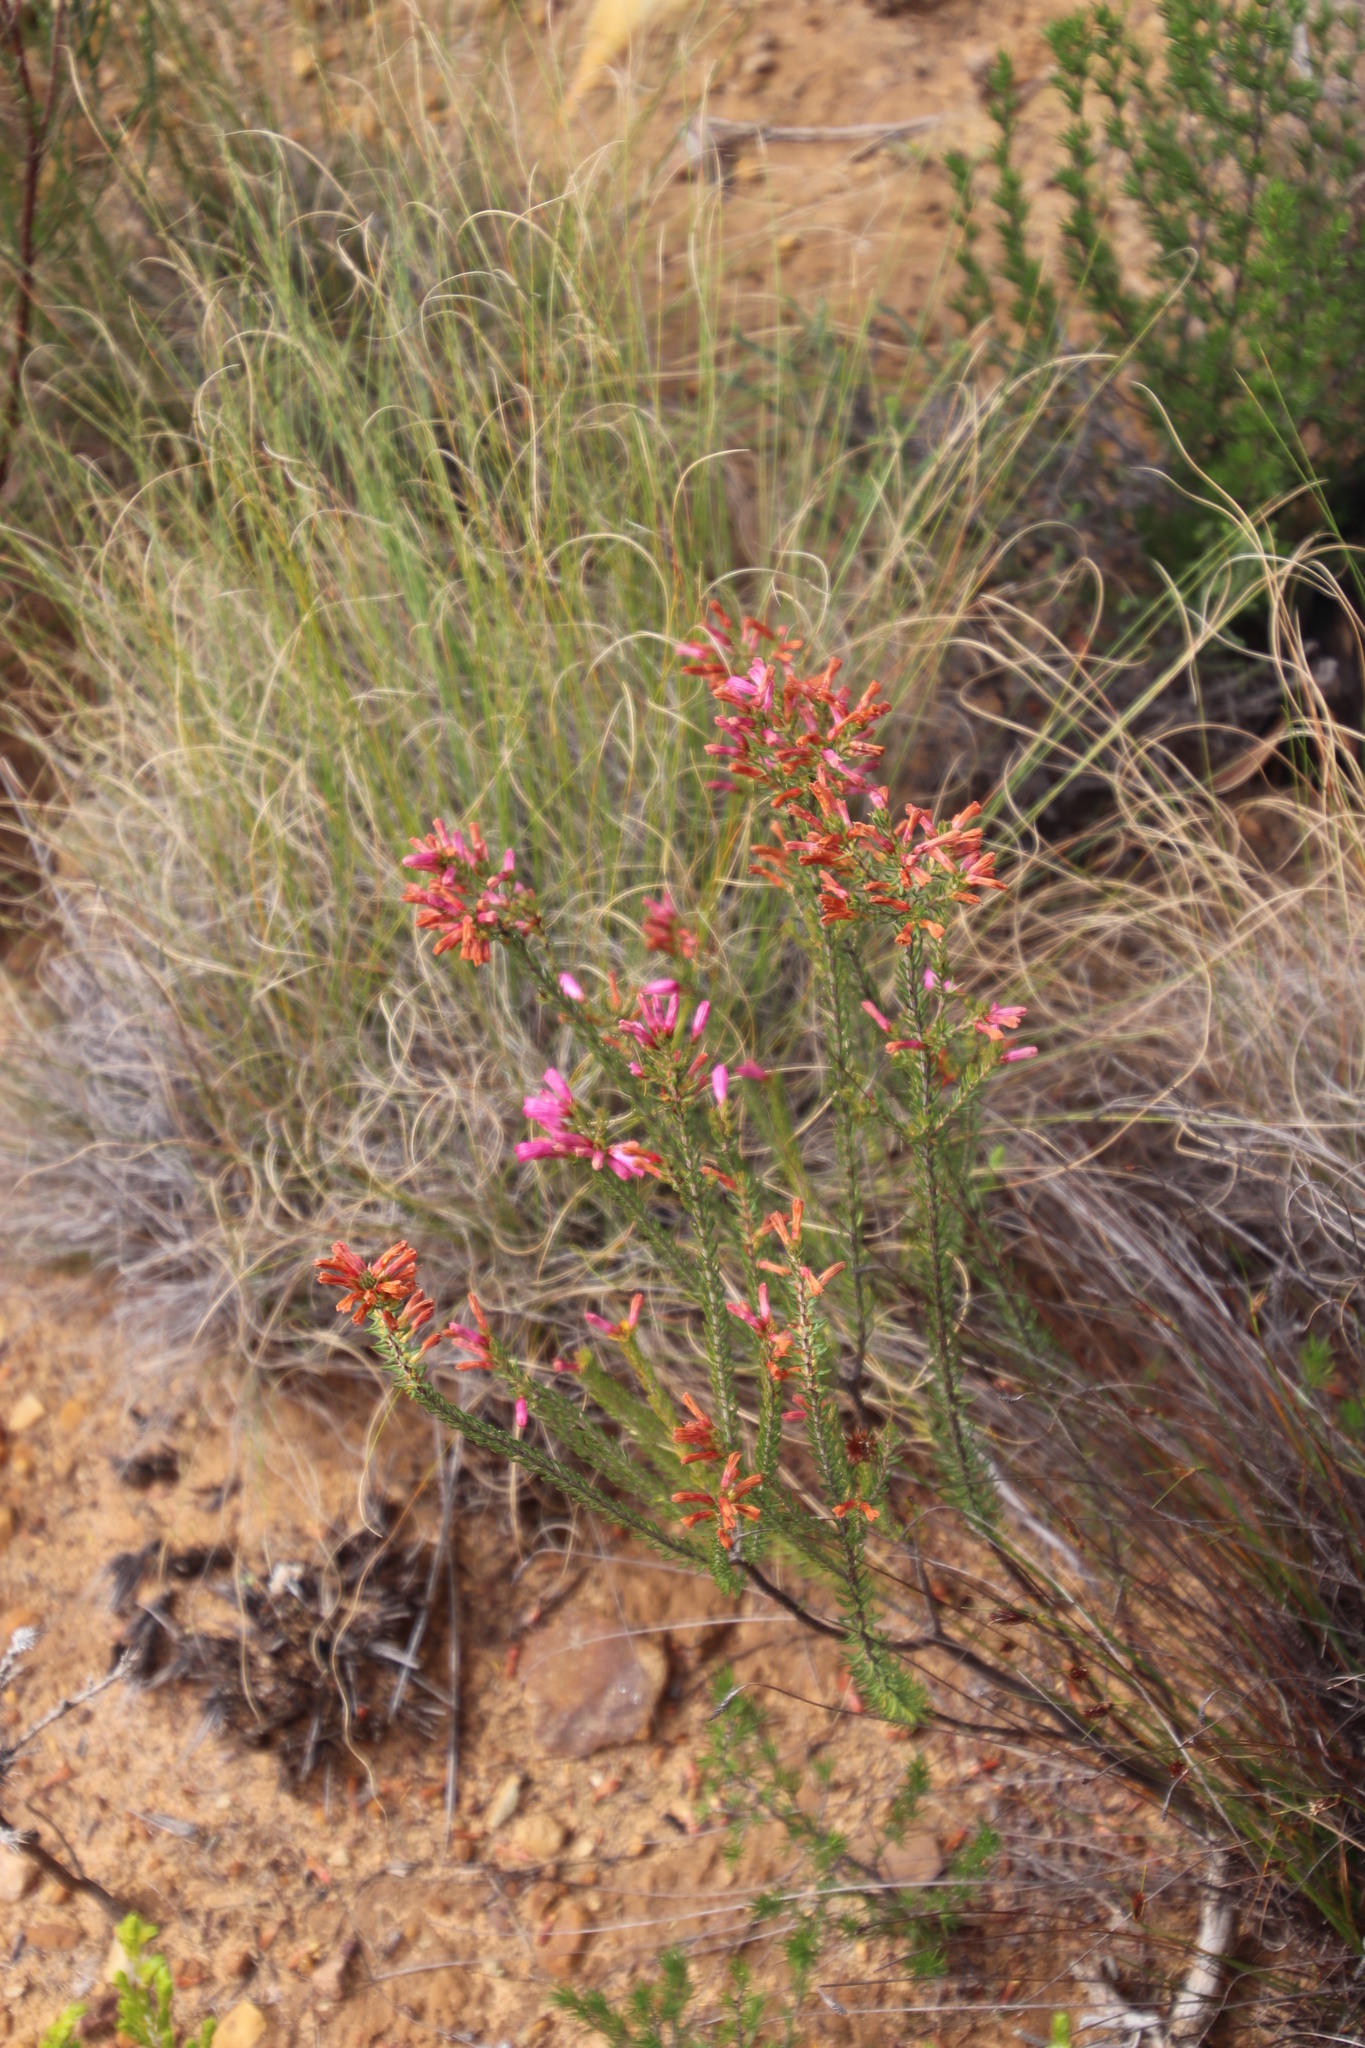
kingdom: Plantae
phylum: Tracheophyta
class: Magnoliopsida
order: Ericales
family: Ericaceae
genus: Erica
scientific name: Erica
